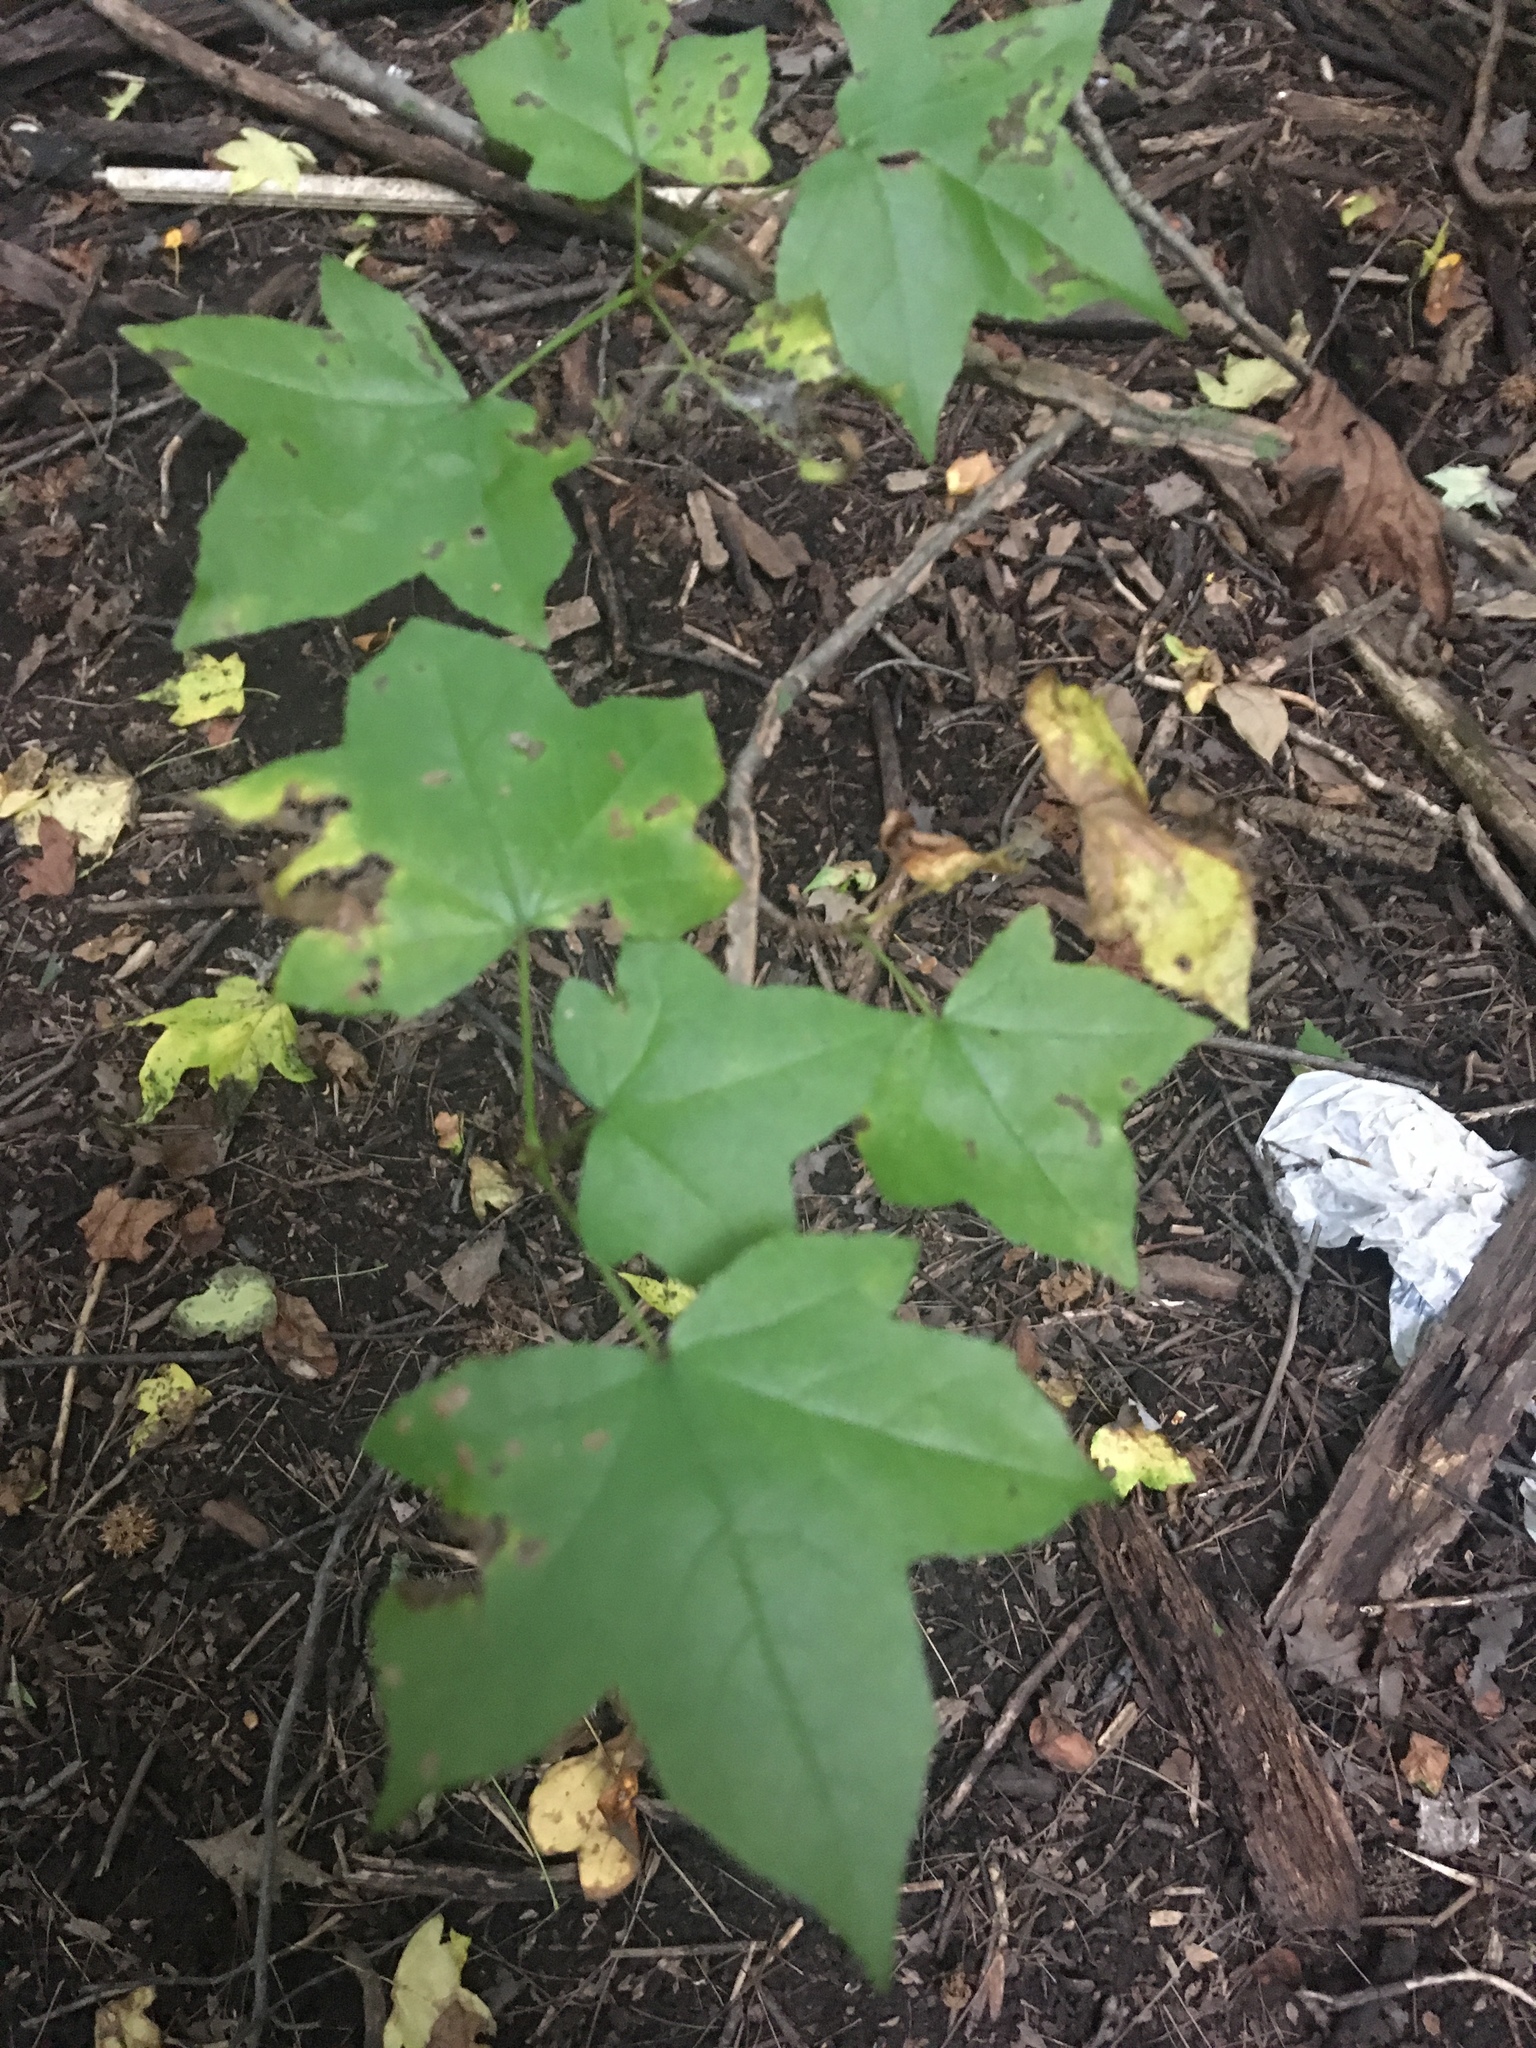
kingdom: Plantae
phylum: Tracheophyta
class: Magnoliopsida
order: Saxifragales
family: Altingiaceae
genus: Liquidambar
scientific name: Liquidambar styraciflua
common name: Sweet gum
